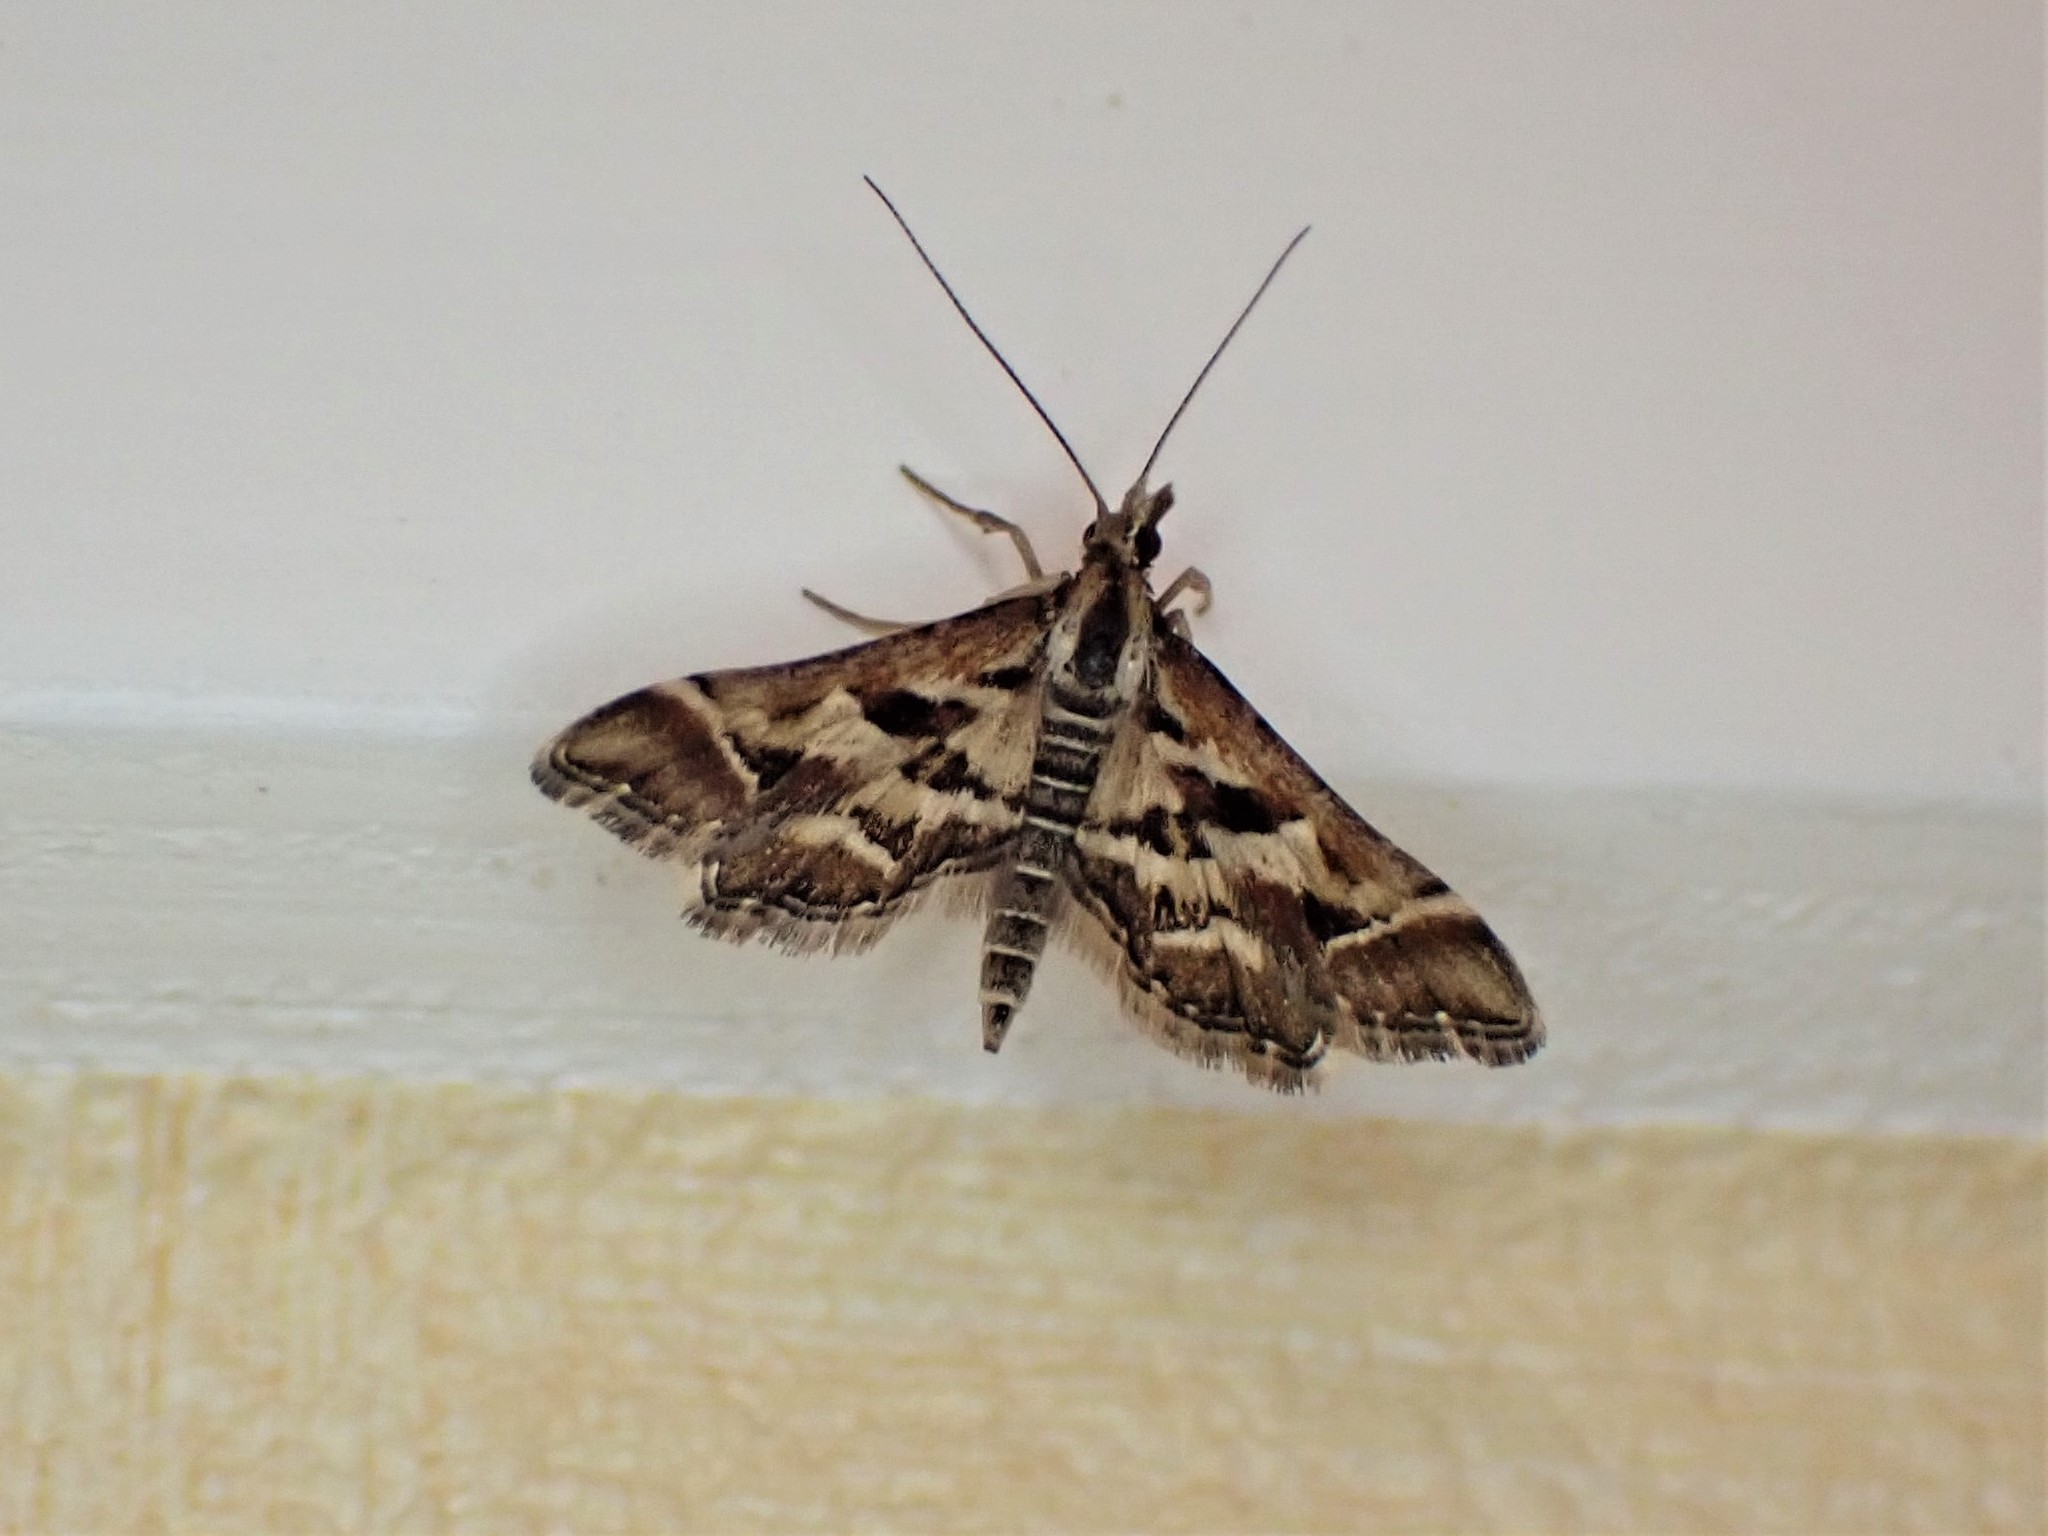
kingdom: Animalia
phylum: Arthropoda
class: Insecta
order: Lepidoptera
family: Crambidae
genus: Diasemia
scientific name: Diasemia grammalis
